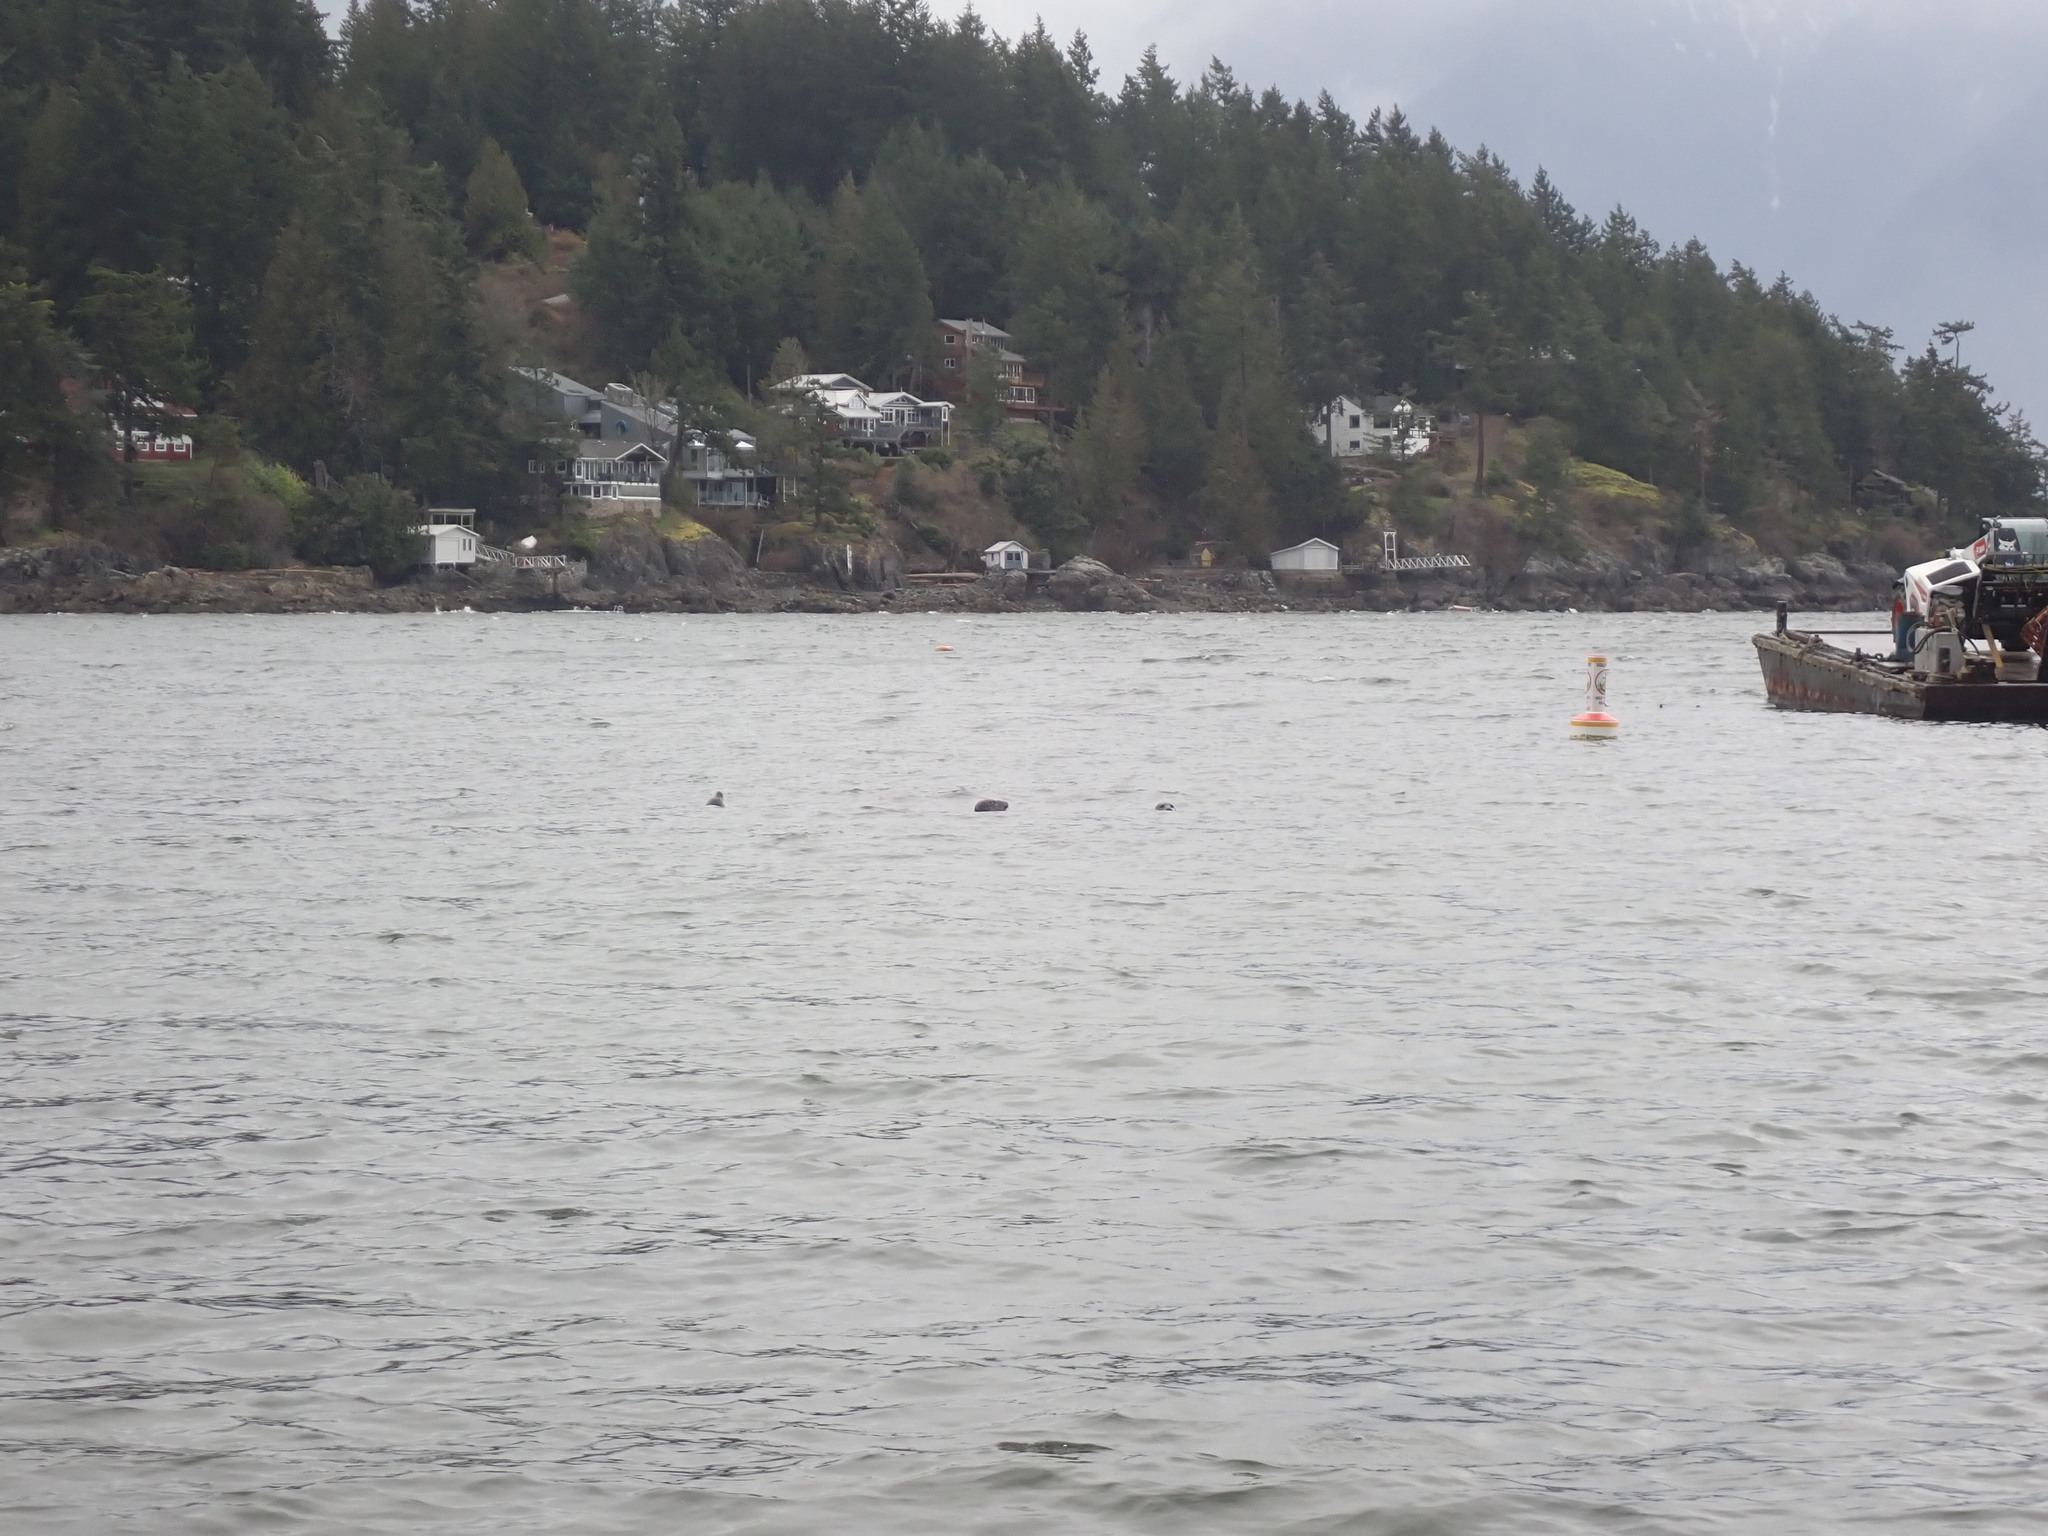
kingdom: Animalia
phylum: Chordata
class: Mammalia
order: Carnivora
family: Phocidae
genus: Phoca
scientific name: Phoca vitulina
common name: Harbor seal
